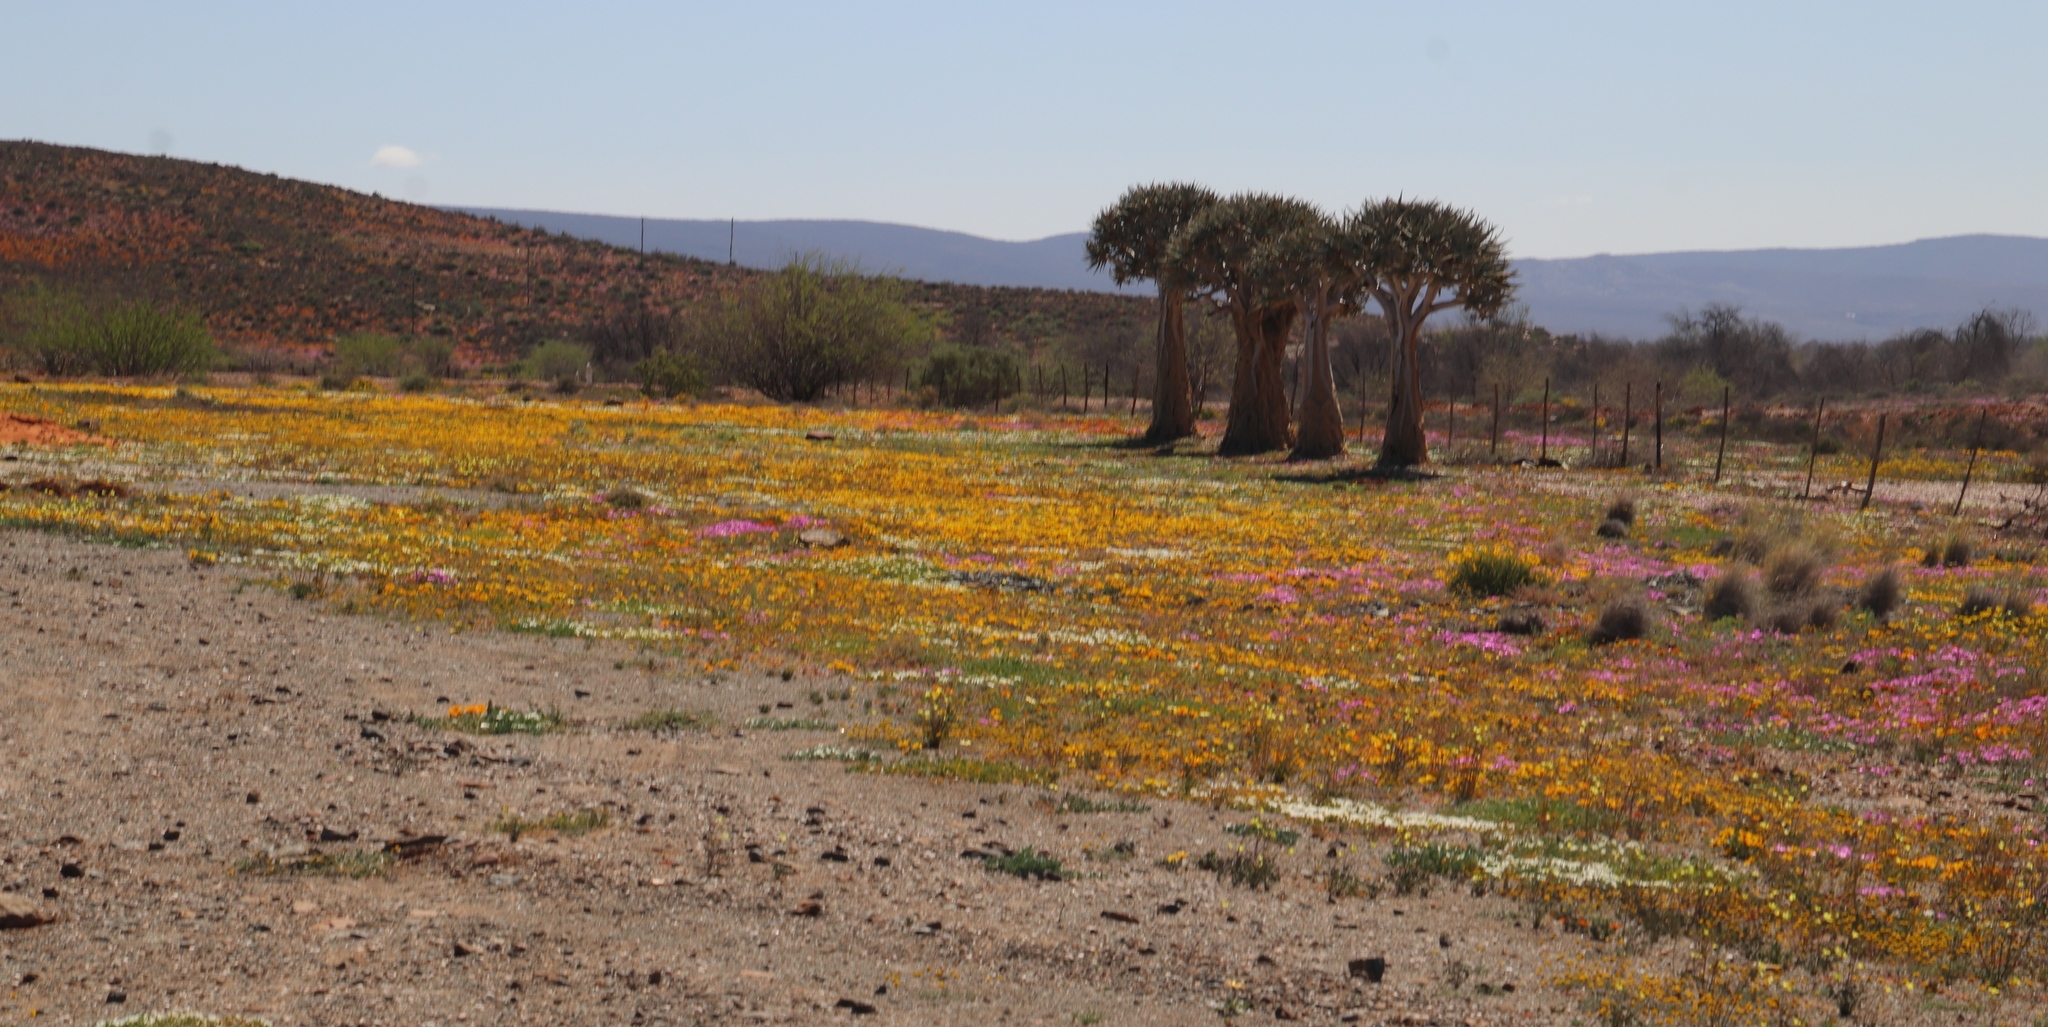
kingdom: Plantae
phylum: Tracheophyta
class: Liliopsida
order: Asparagales
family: Asphodelaceae
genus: Aloidendron
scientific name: Aloidendron dichotomum
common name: Quiver tree
